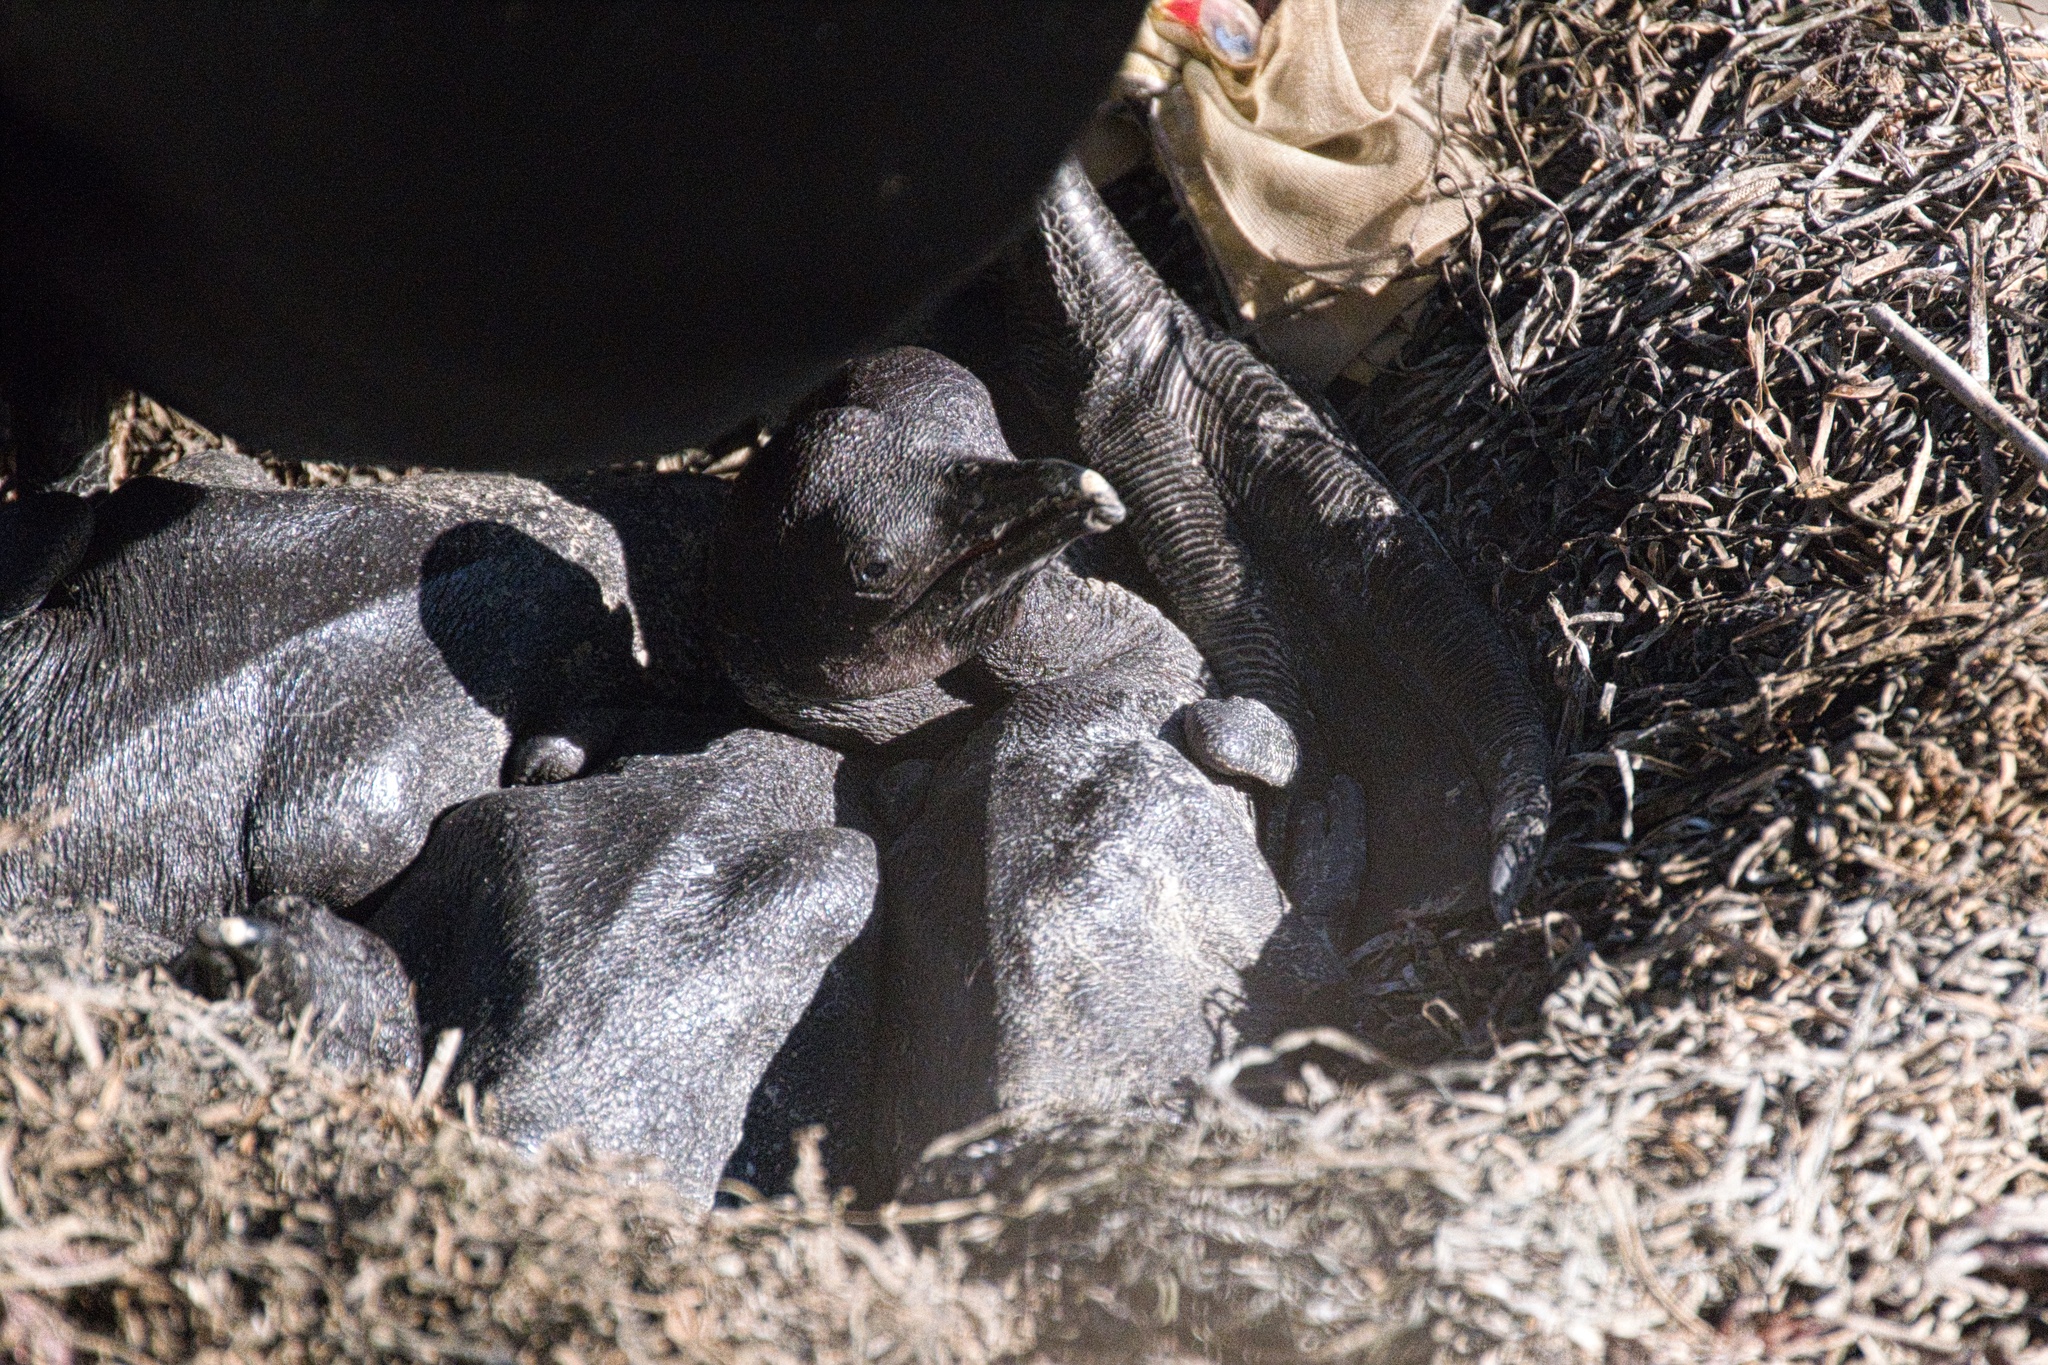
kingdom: Animalia
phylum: Chordata
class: Aves
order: Suliformes
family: Phalacrocoracidae
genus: Urile
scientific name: Urile penicillatus
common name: Brandt's cormorant
